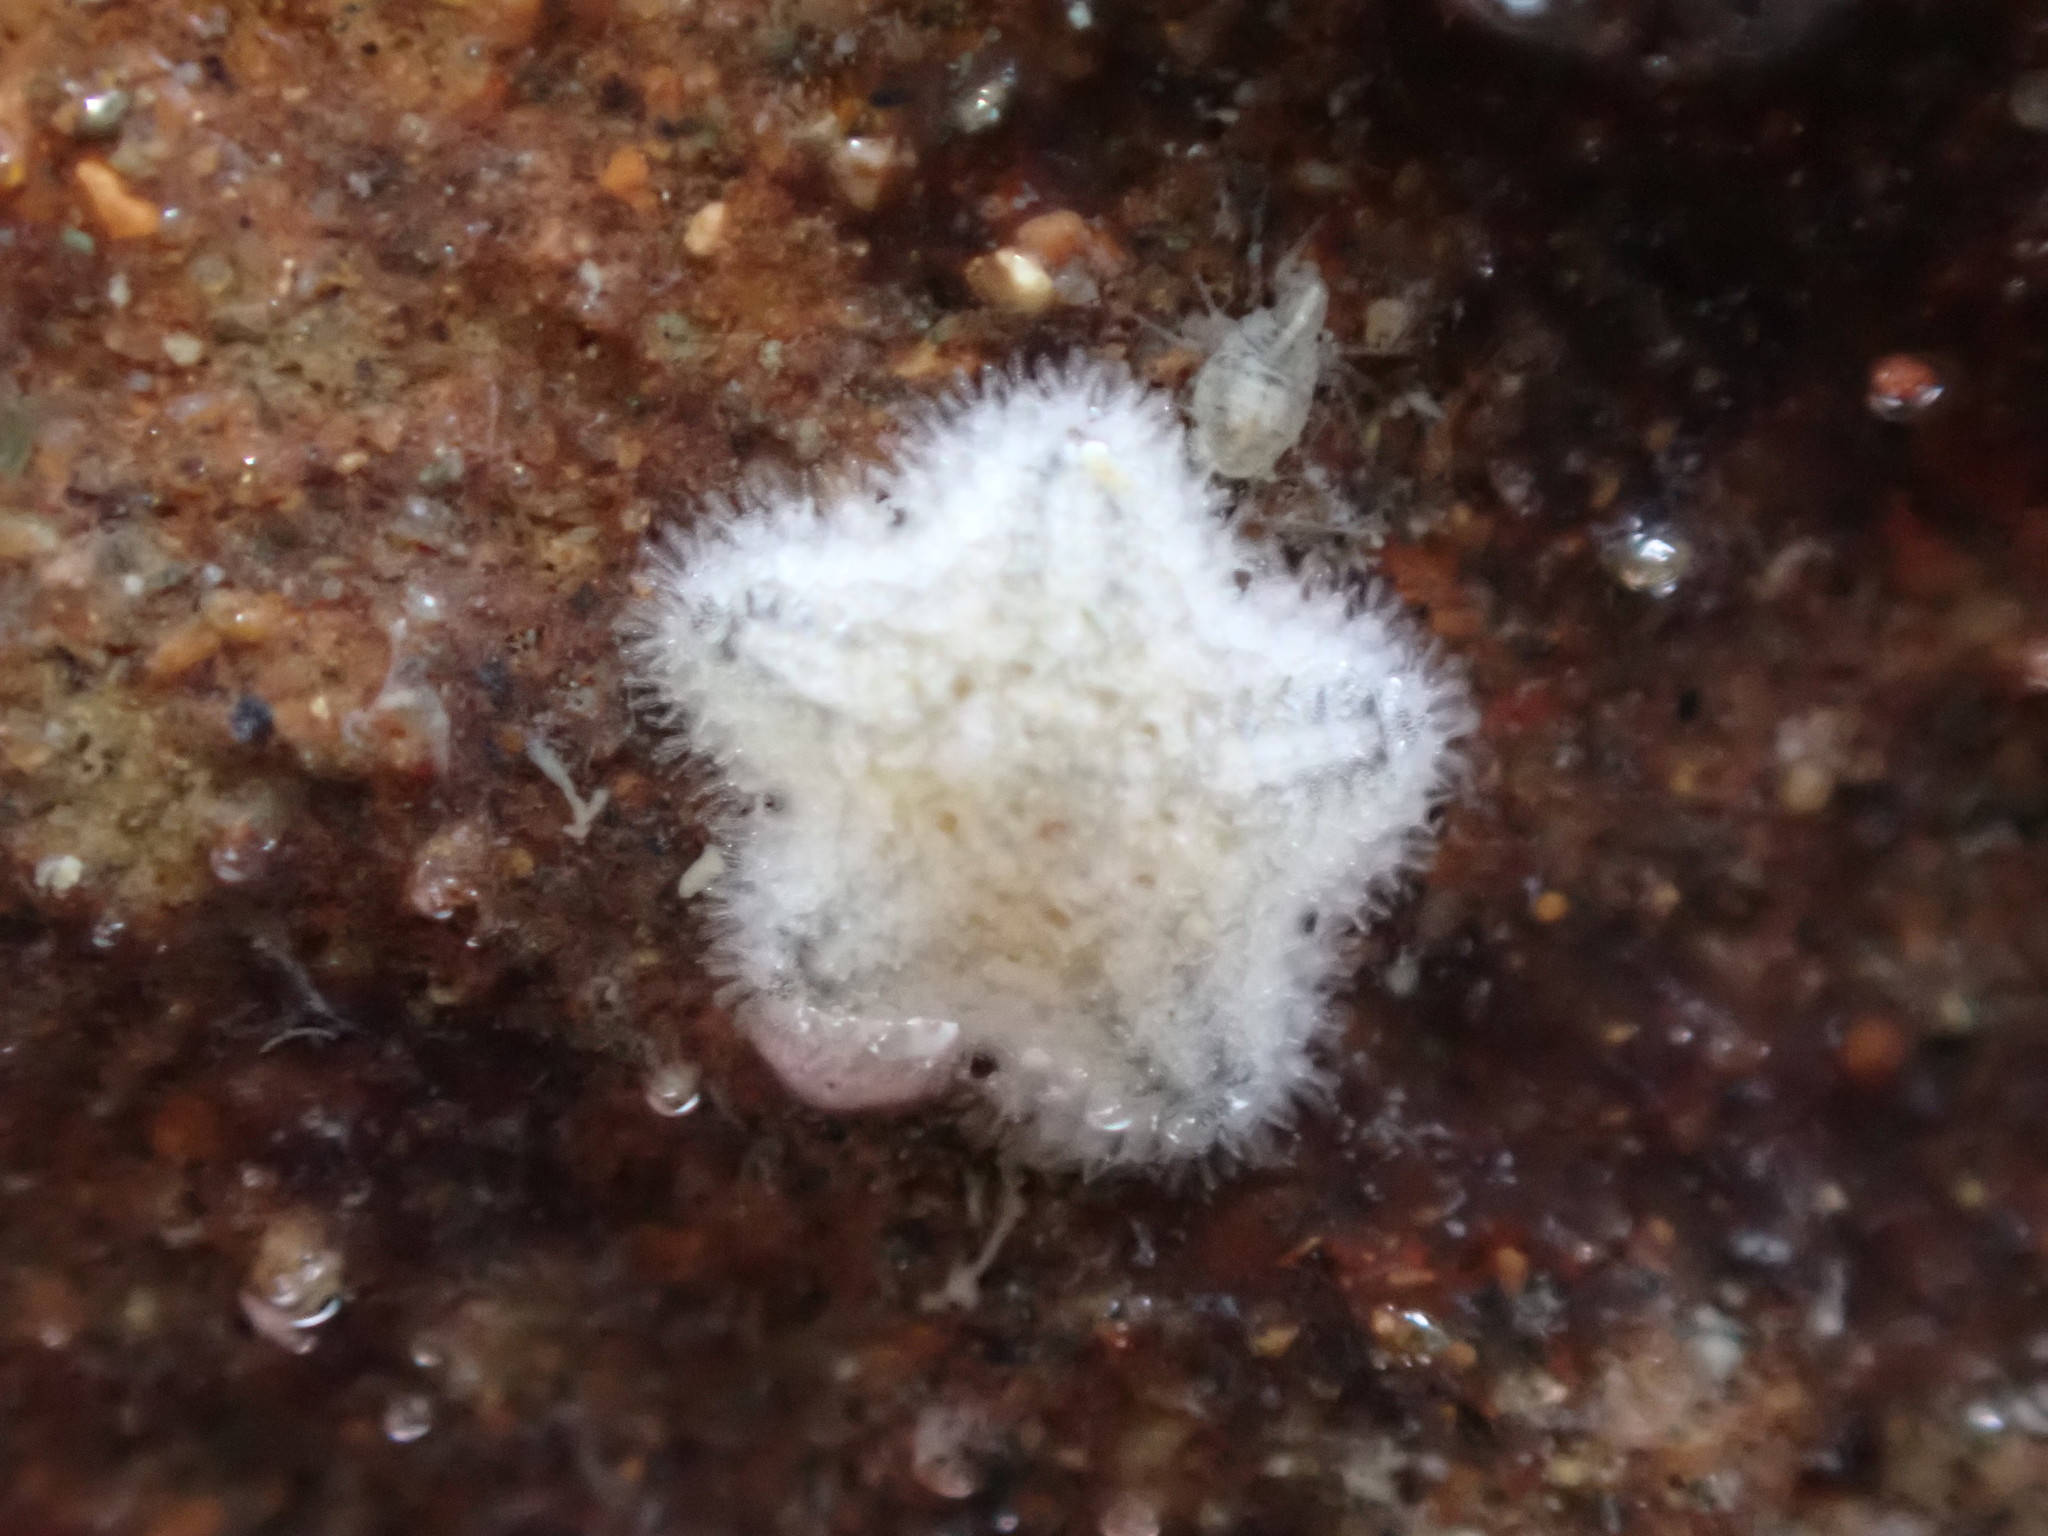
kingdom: Animalia
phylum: Echinodermata
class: Asteroidea
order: Valvatida
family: Asterinidae
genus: Patiriella
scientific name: Patiriella regularis
